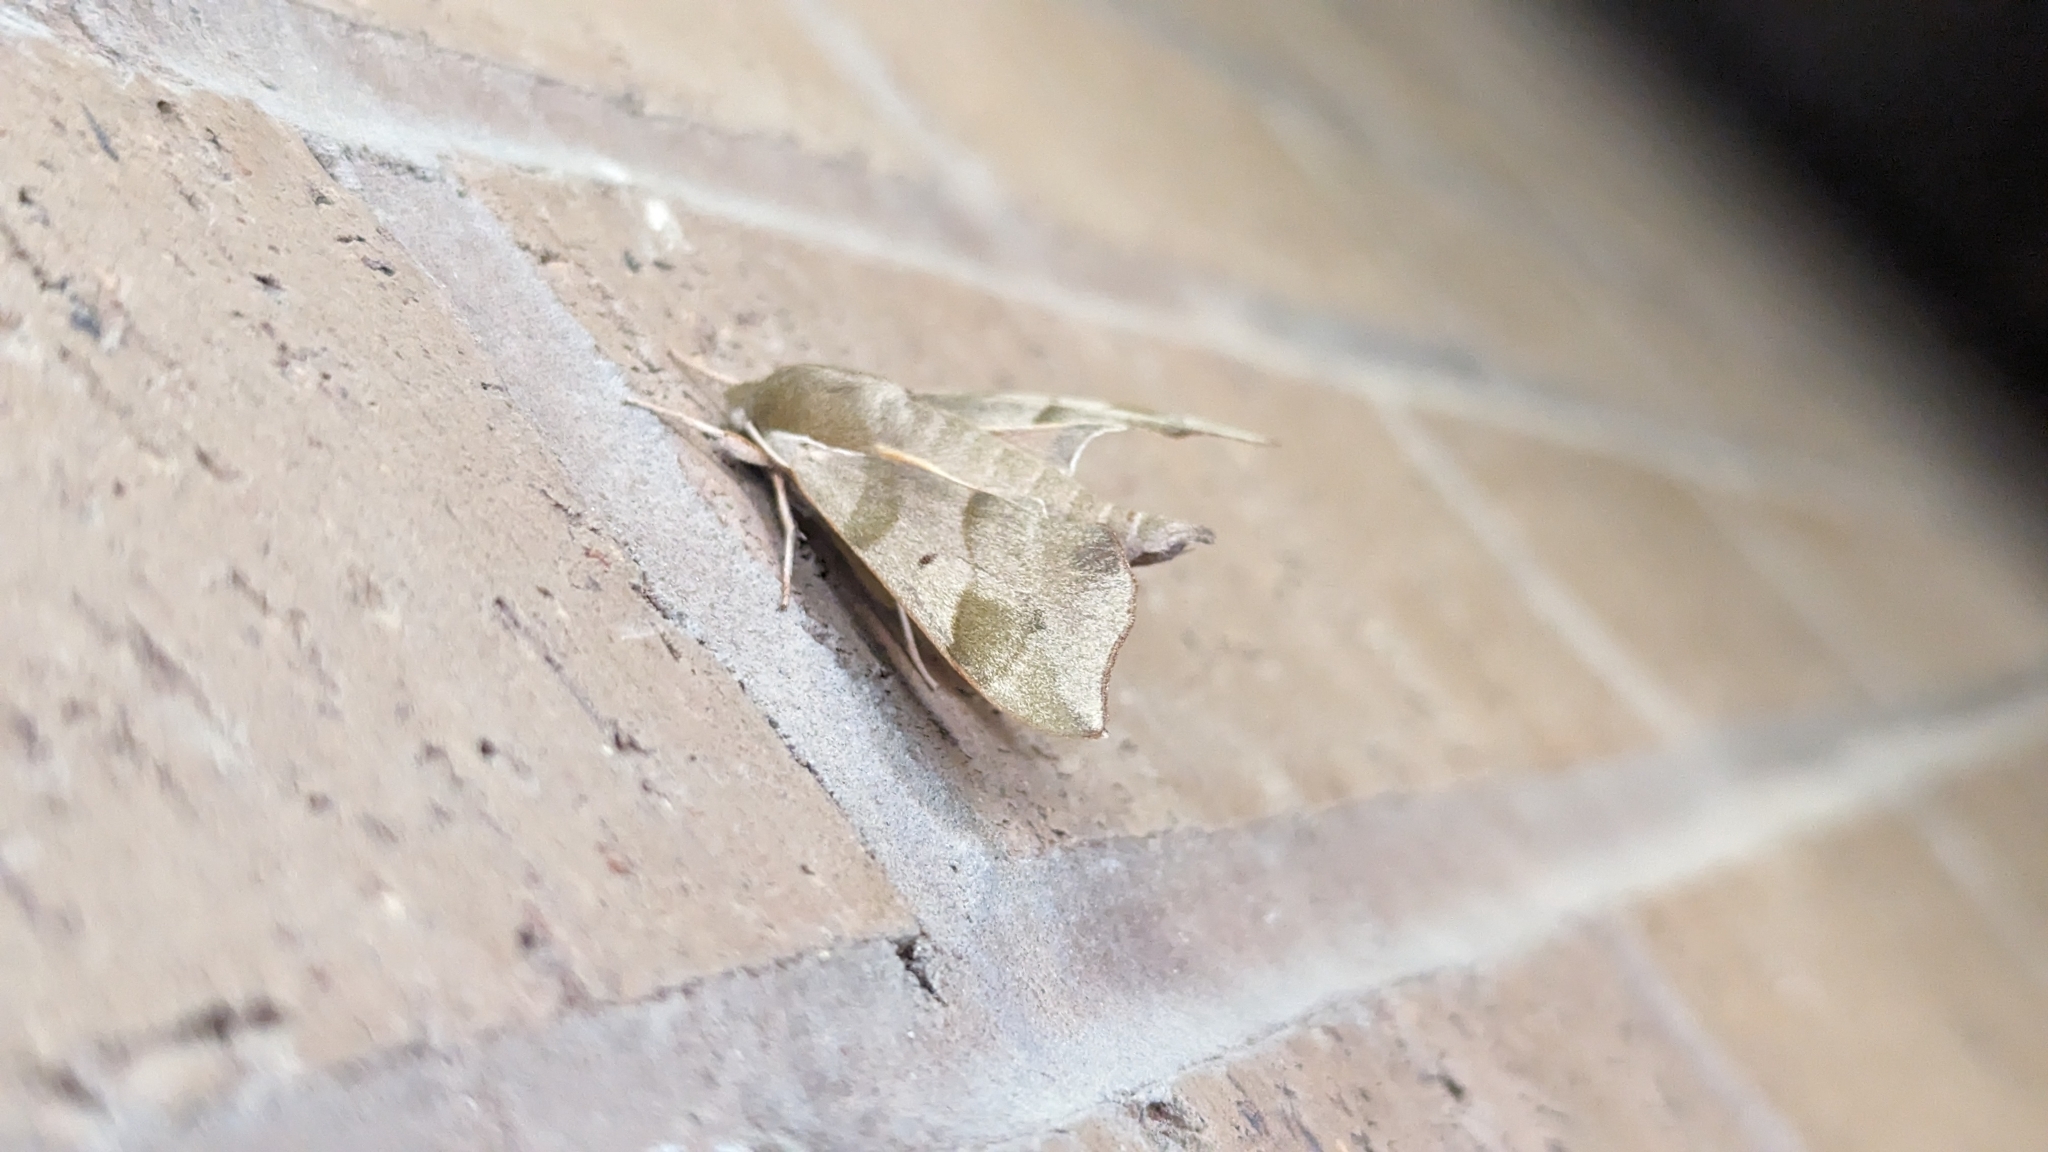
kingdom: Animalia
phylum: Arthropoda
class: Insecta
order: Lepidoptera
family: Sphingidae
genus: Darapsa
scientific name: Darapsa myron
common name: Hog sphinx
